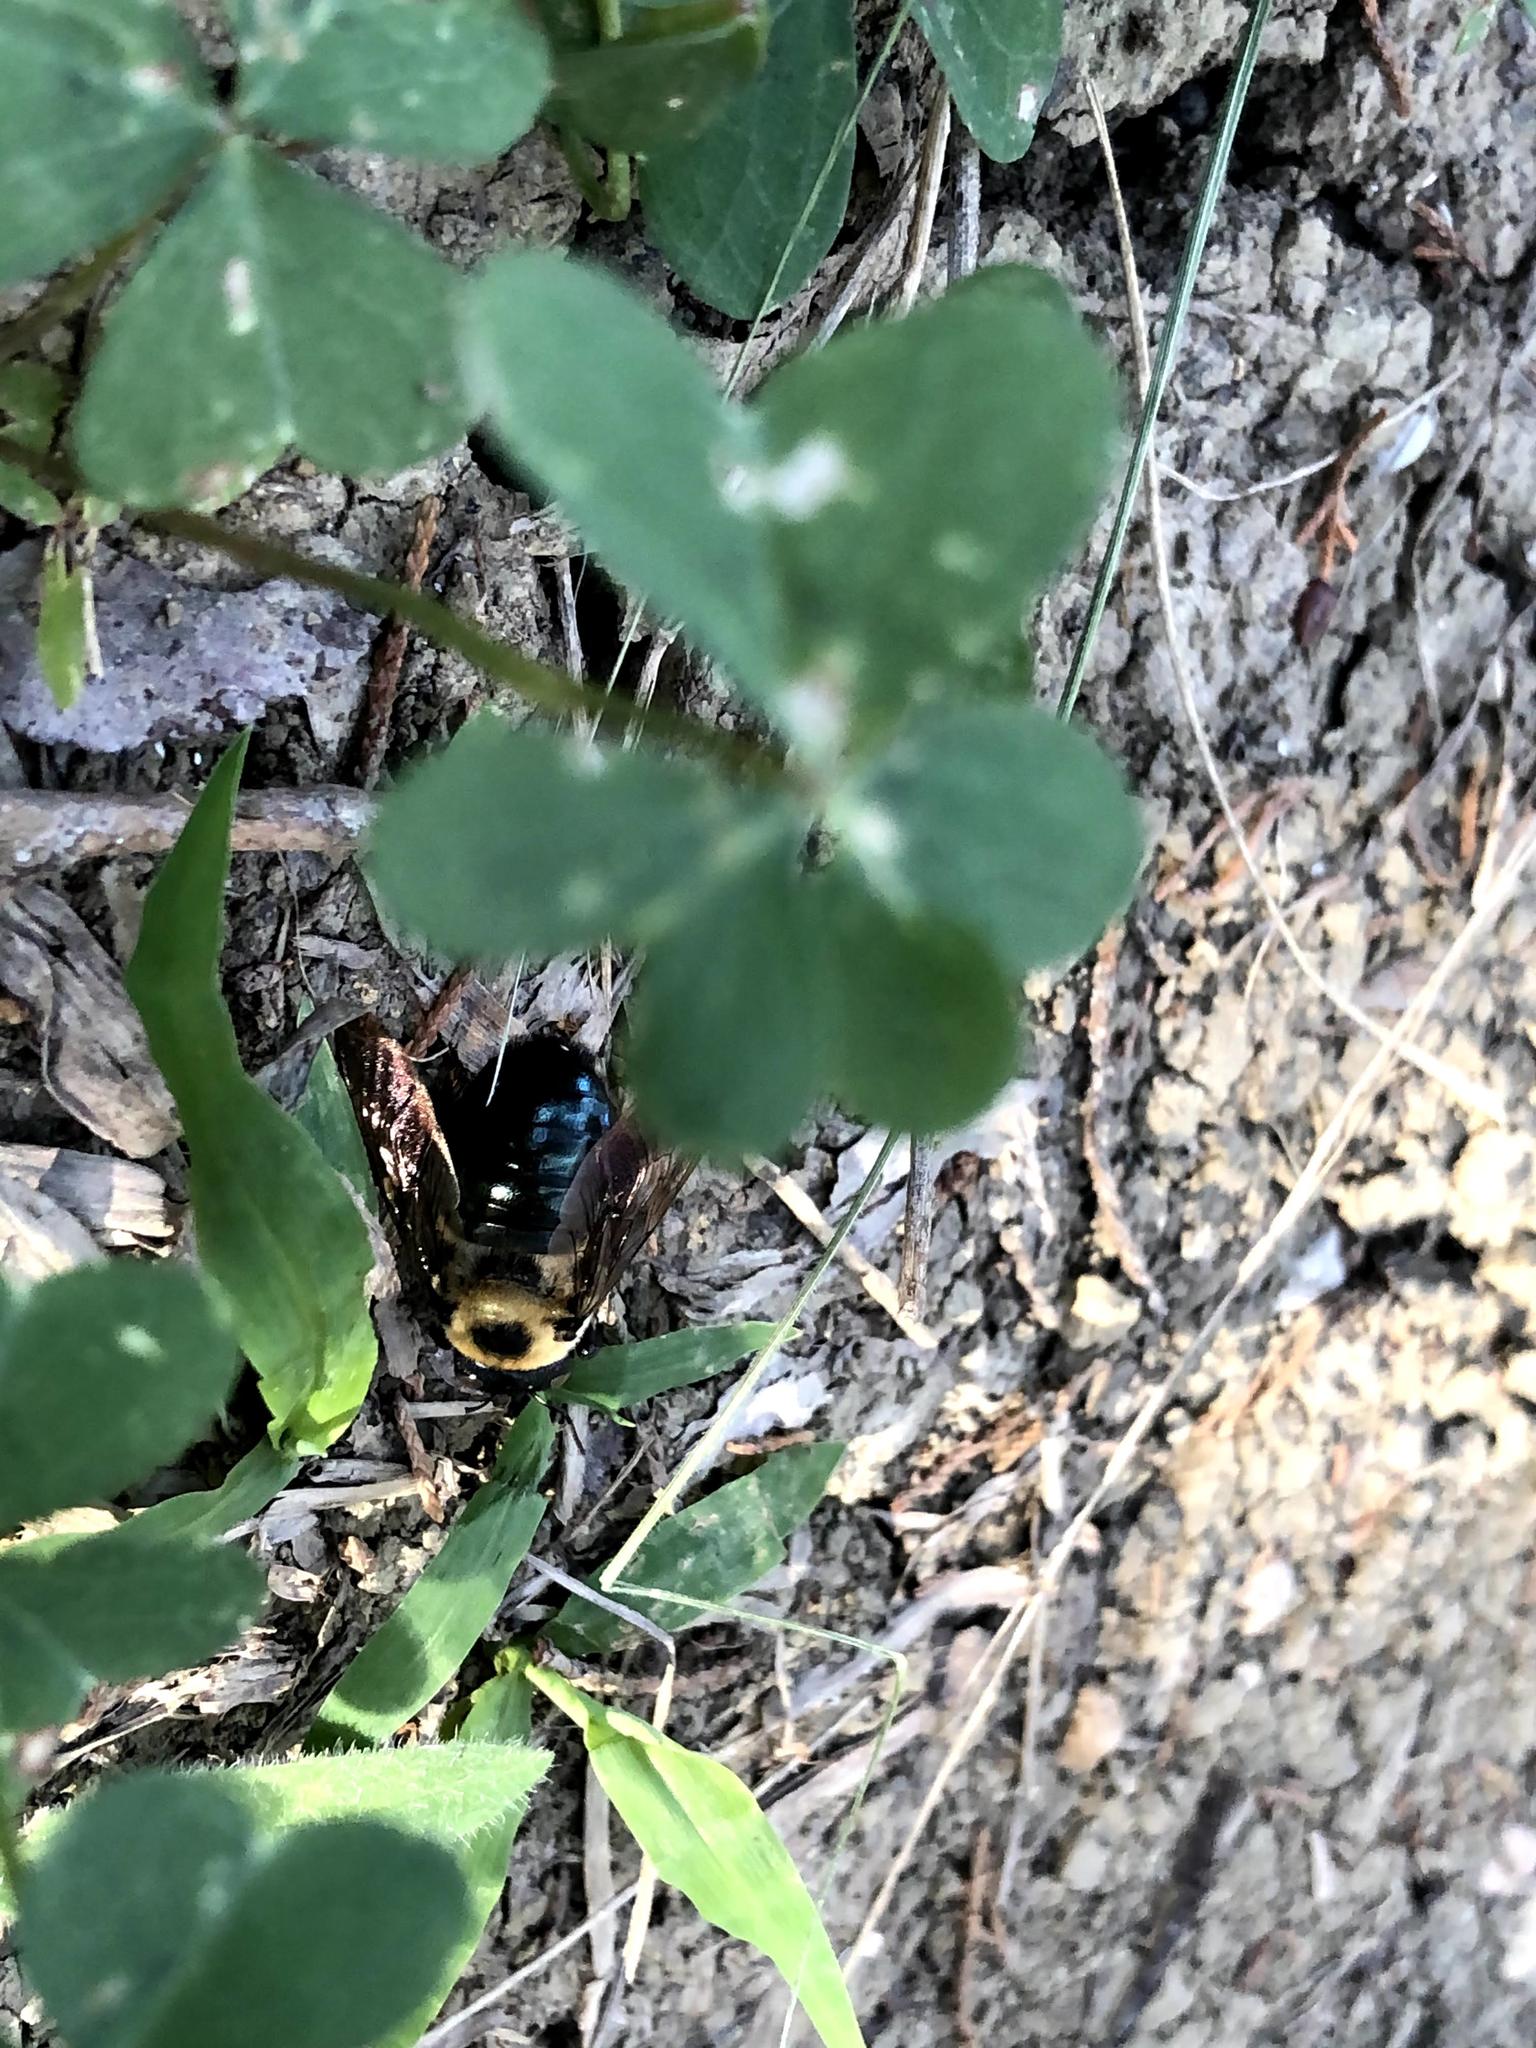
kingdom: Animalia
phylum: Arthropoda
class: Insecta
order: Hymenoptera
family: Apidae
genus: Xylocopa
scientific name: Xylocopa virginica
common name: Carpenter bee
